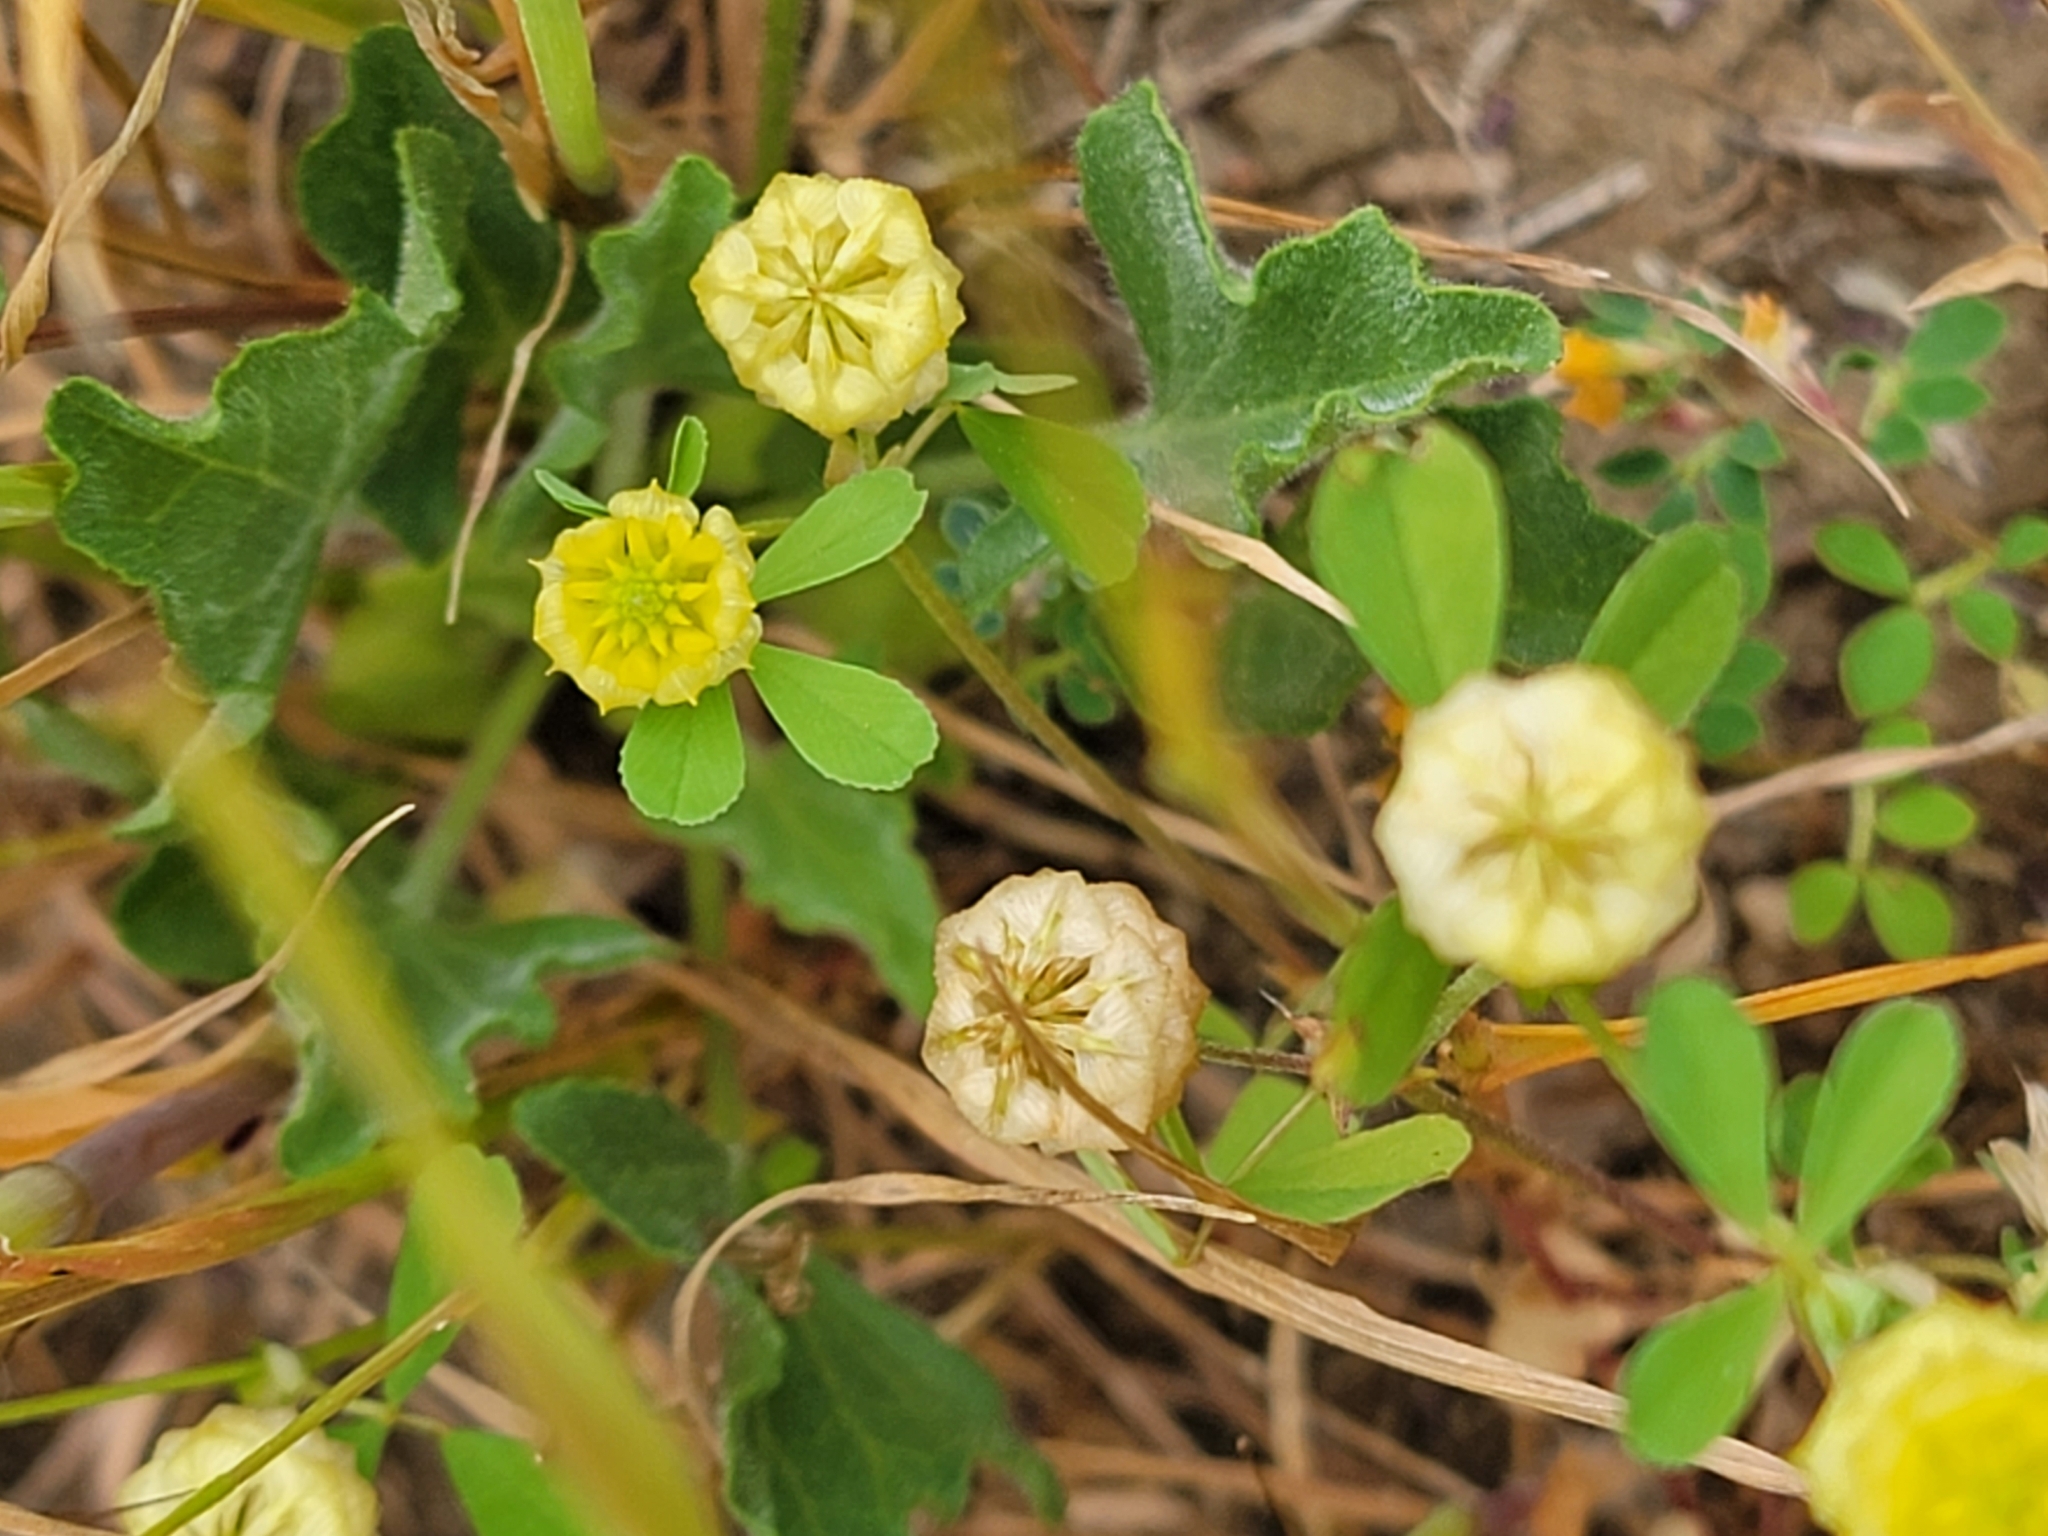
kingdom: Plantae
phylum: Tracheophyta
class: Magnoliopsida
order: Fabales
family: Fabaceae
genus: Trifolium
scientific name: Trifolium campestre
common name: Field clover
